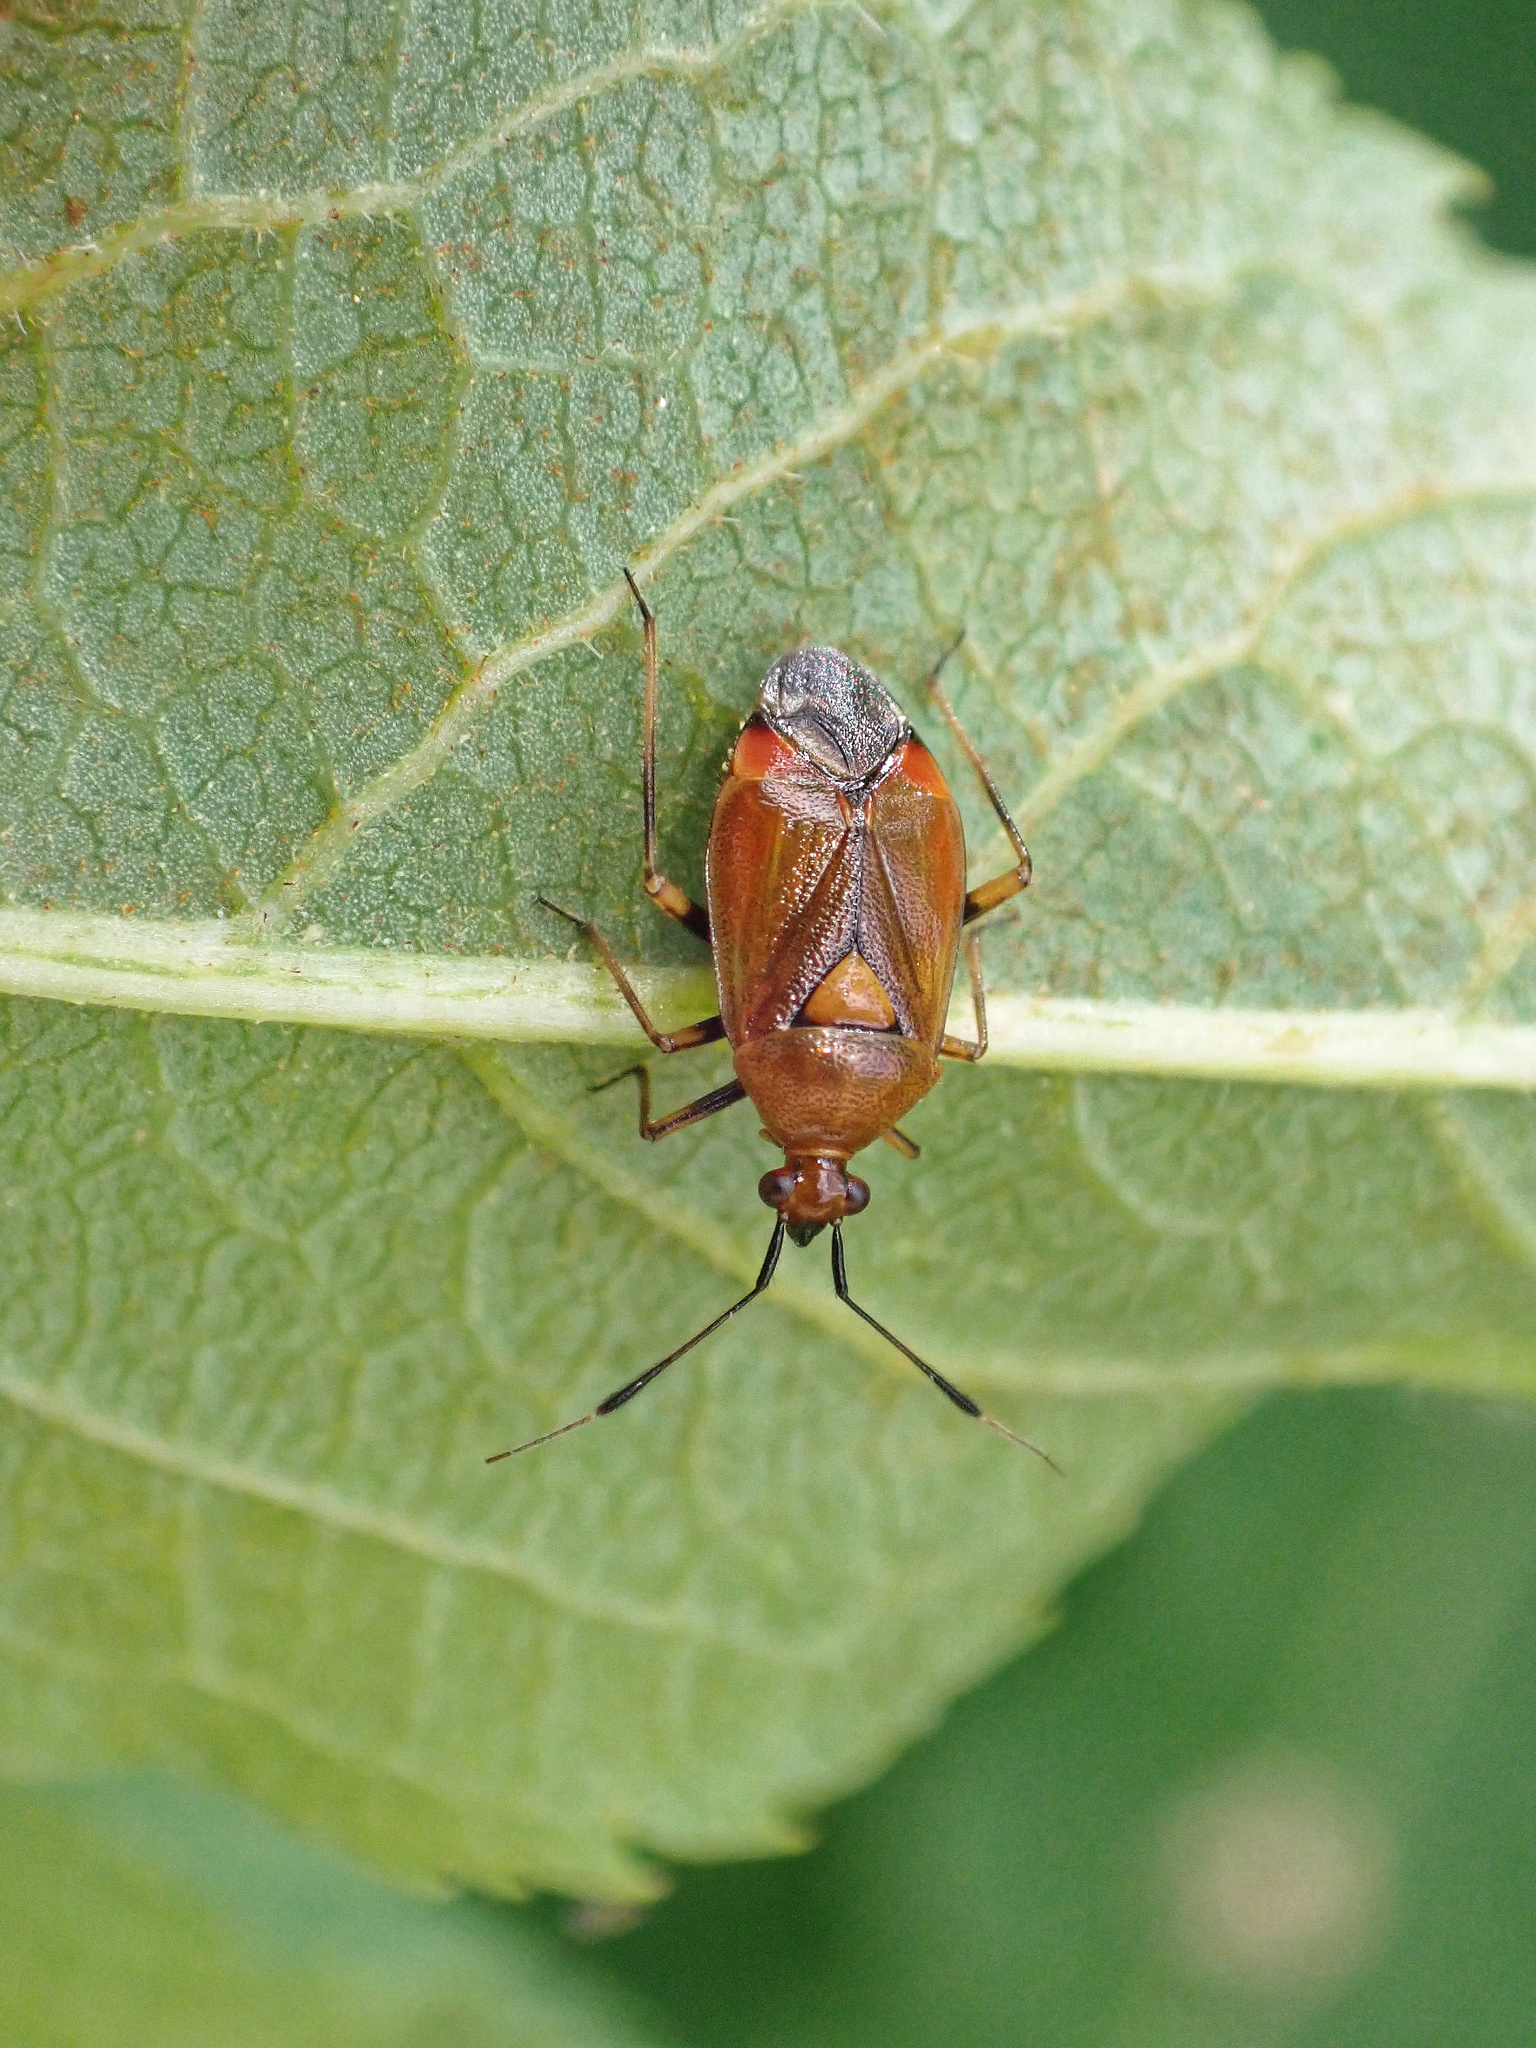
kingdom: Animalia
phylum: Arthropoda
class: Insecta
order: Hemiptera
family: Miridae
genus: Deraeocoris
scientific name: Deraeocoris ruber
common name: Plant bug
